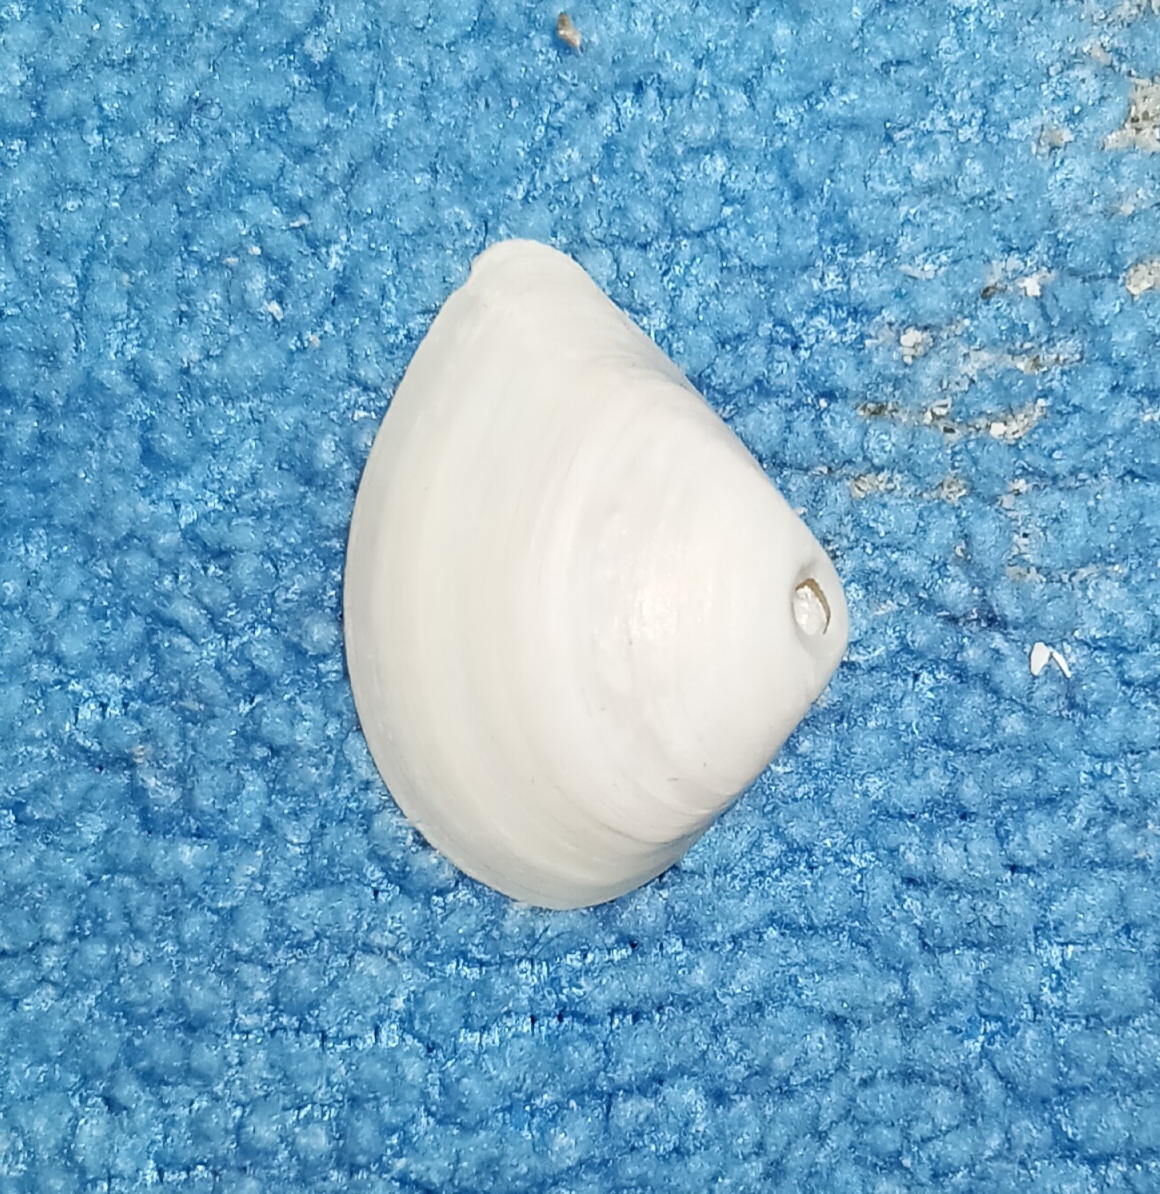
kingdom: Animalia
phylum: Mollusca
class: Bivalvia
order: Venerida
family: Mactridae
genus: Mulinia
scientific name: Mulinia lateralis
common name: Dwarf surfclam
